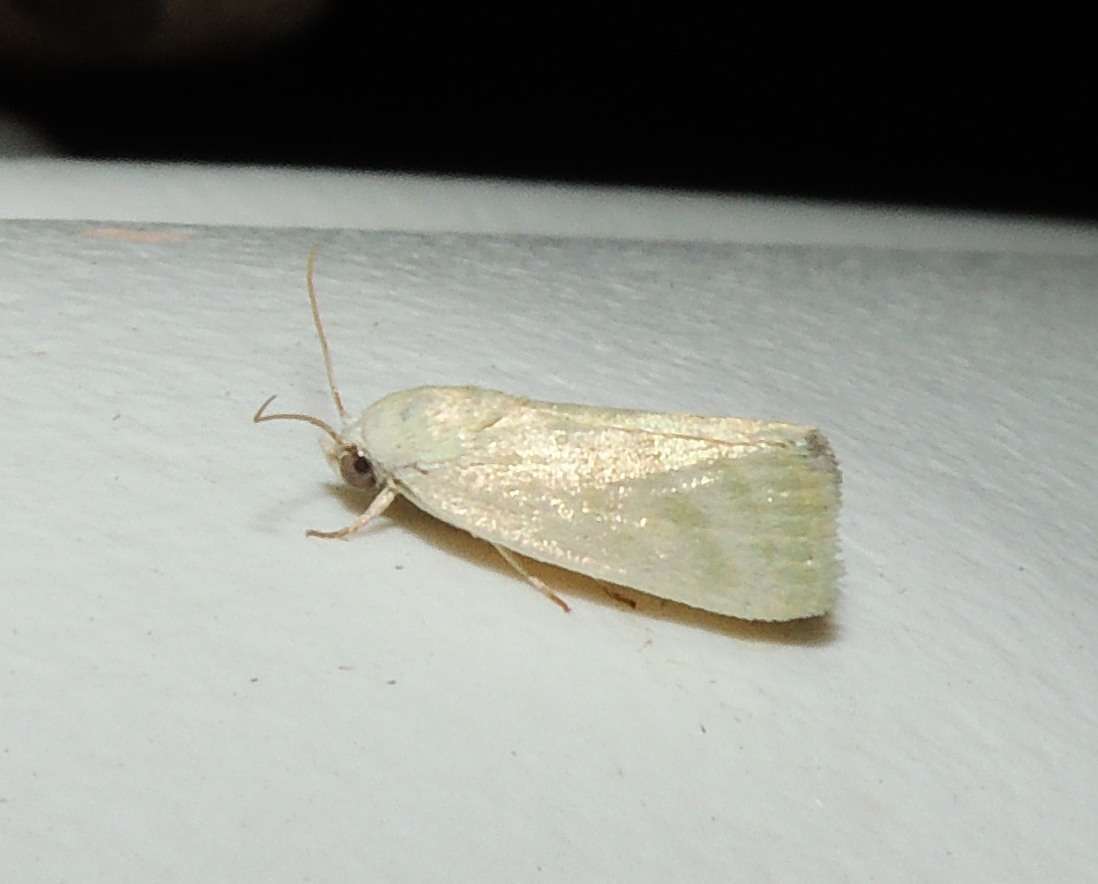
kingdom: Animalia
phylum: Arthropoda
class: Insecta
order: Lepidoptera
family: Nolidae
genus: Earias
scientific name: Earias paralella
